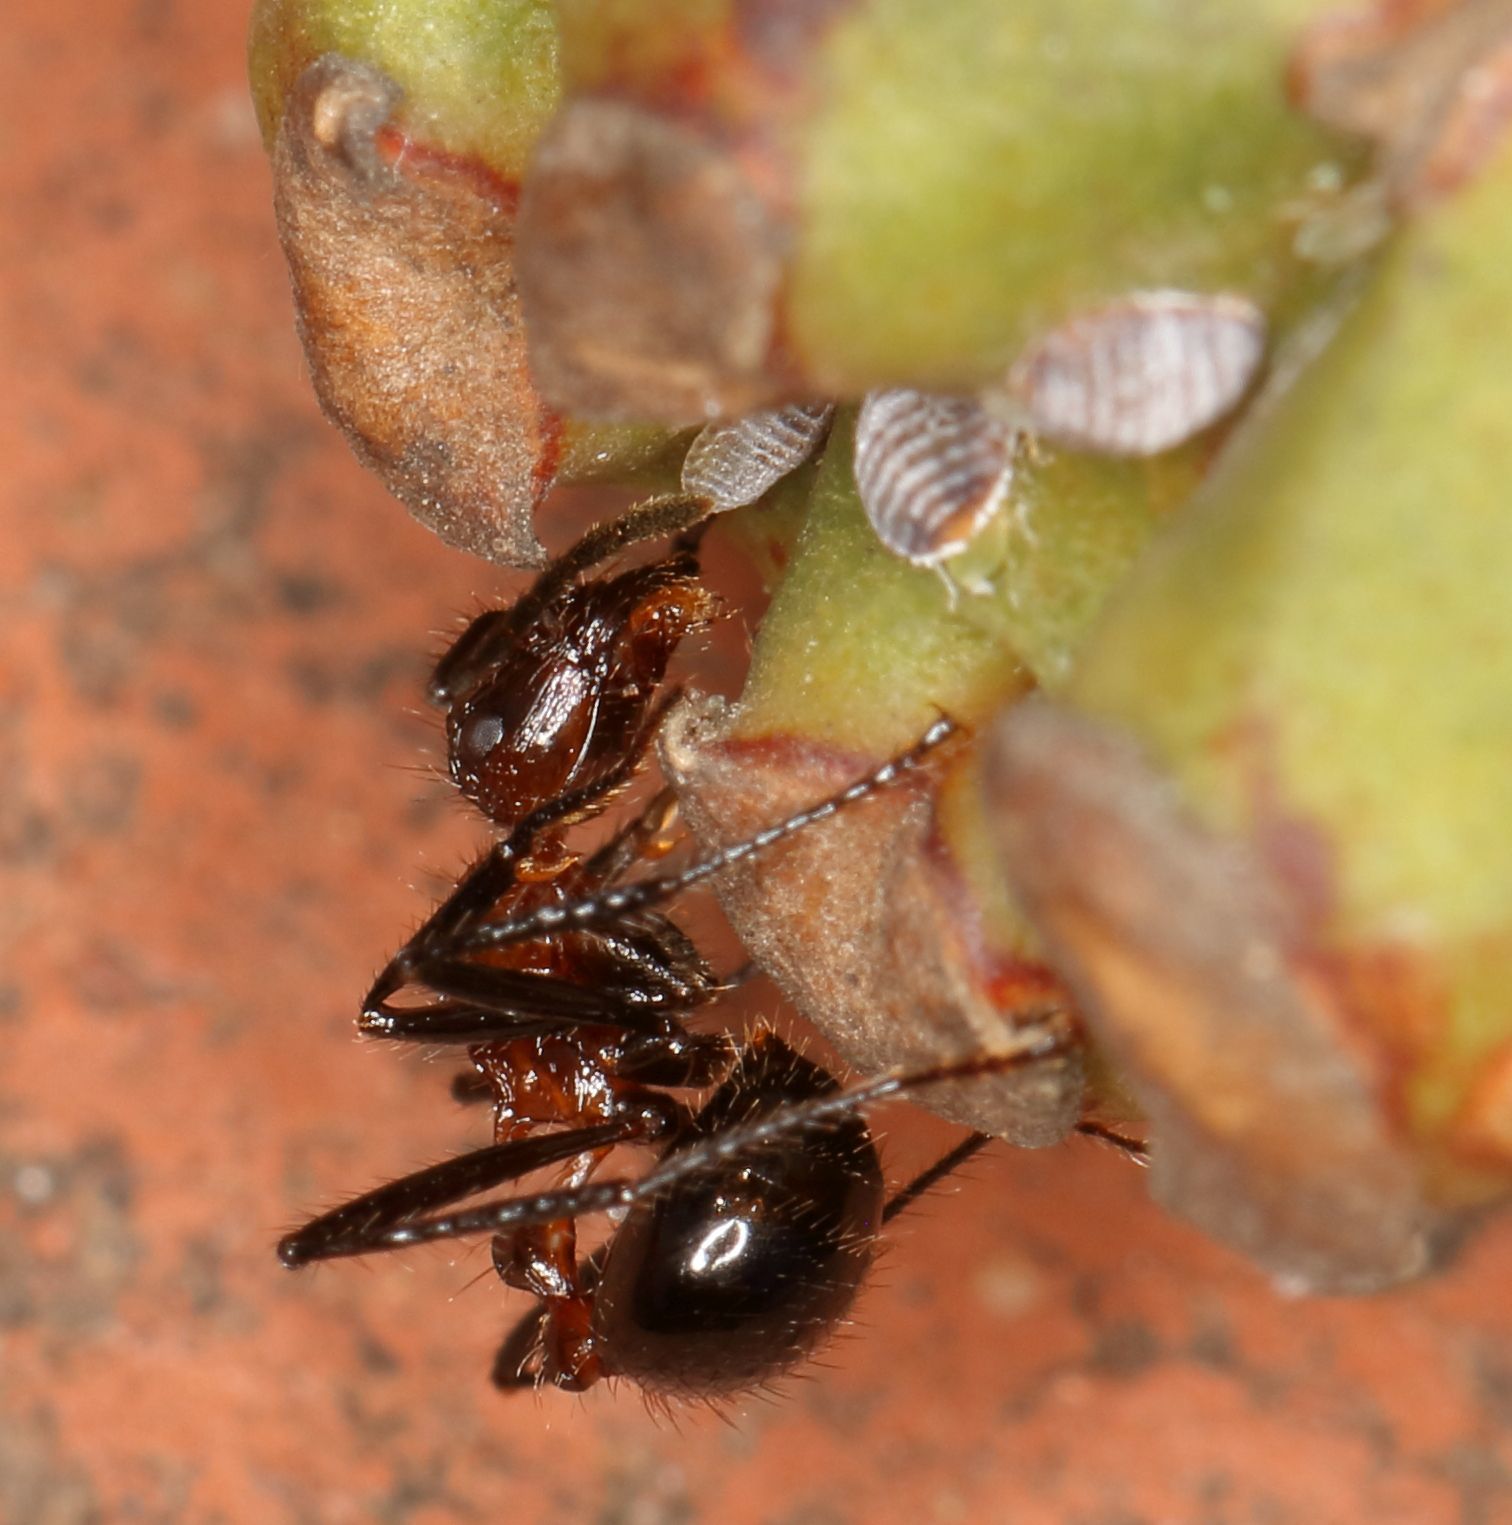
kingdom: Animalia
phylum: Arthropoda
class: Insecta
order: Hymenoptera
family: Formicidae
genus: Myrmicaria
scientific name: Myrmicaria natalensis
